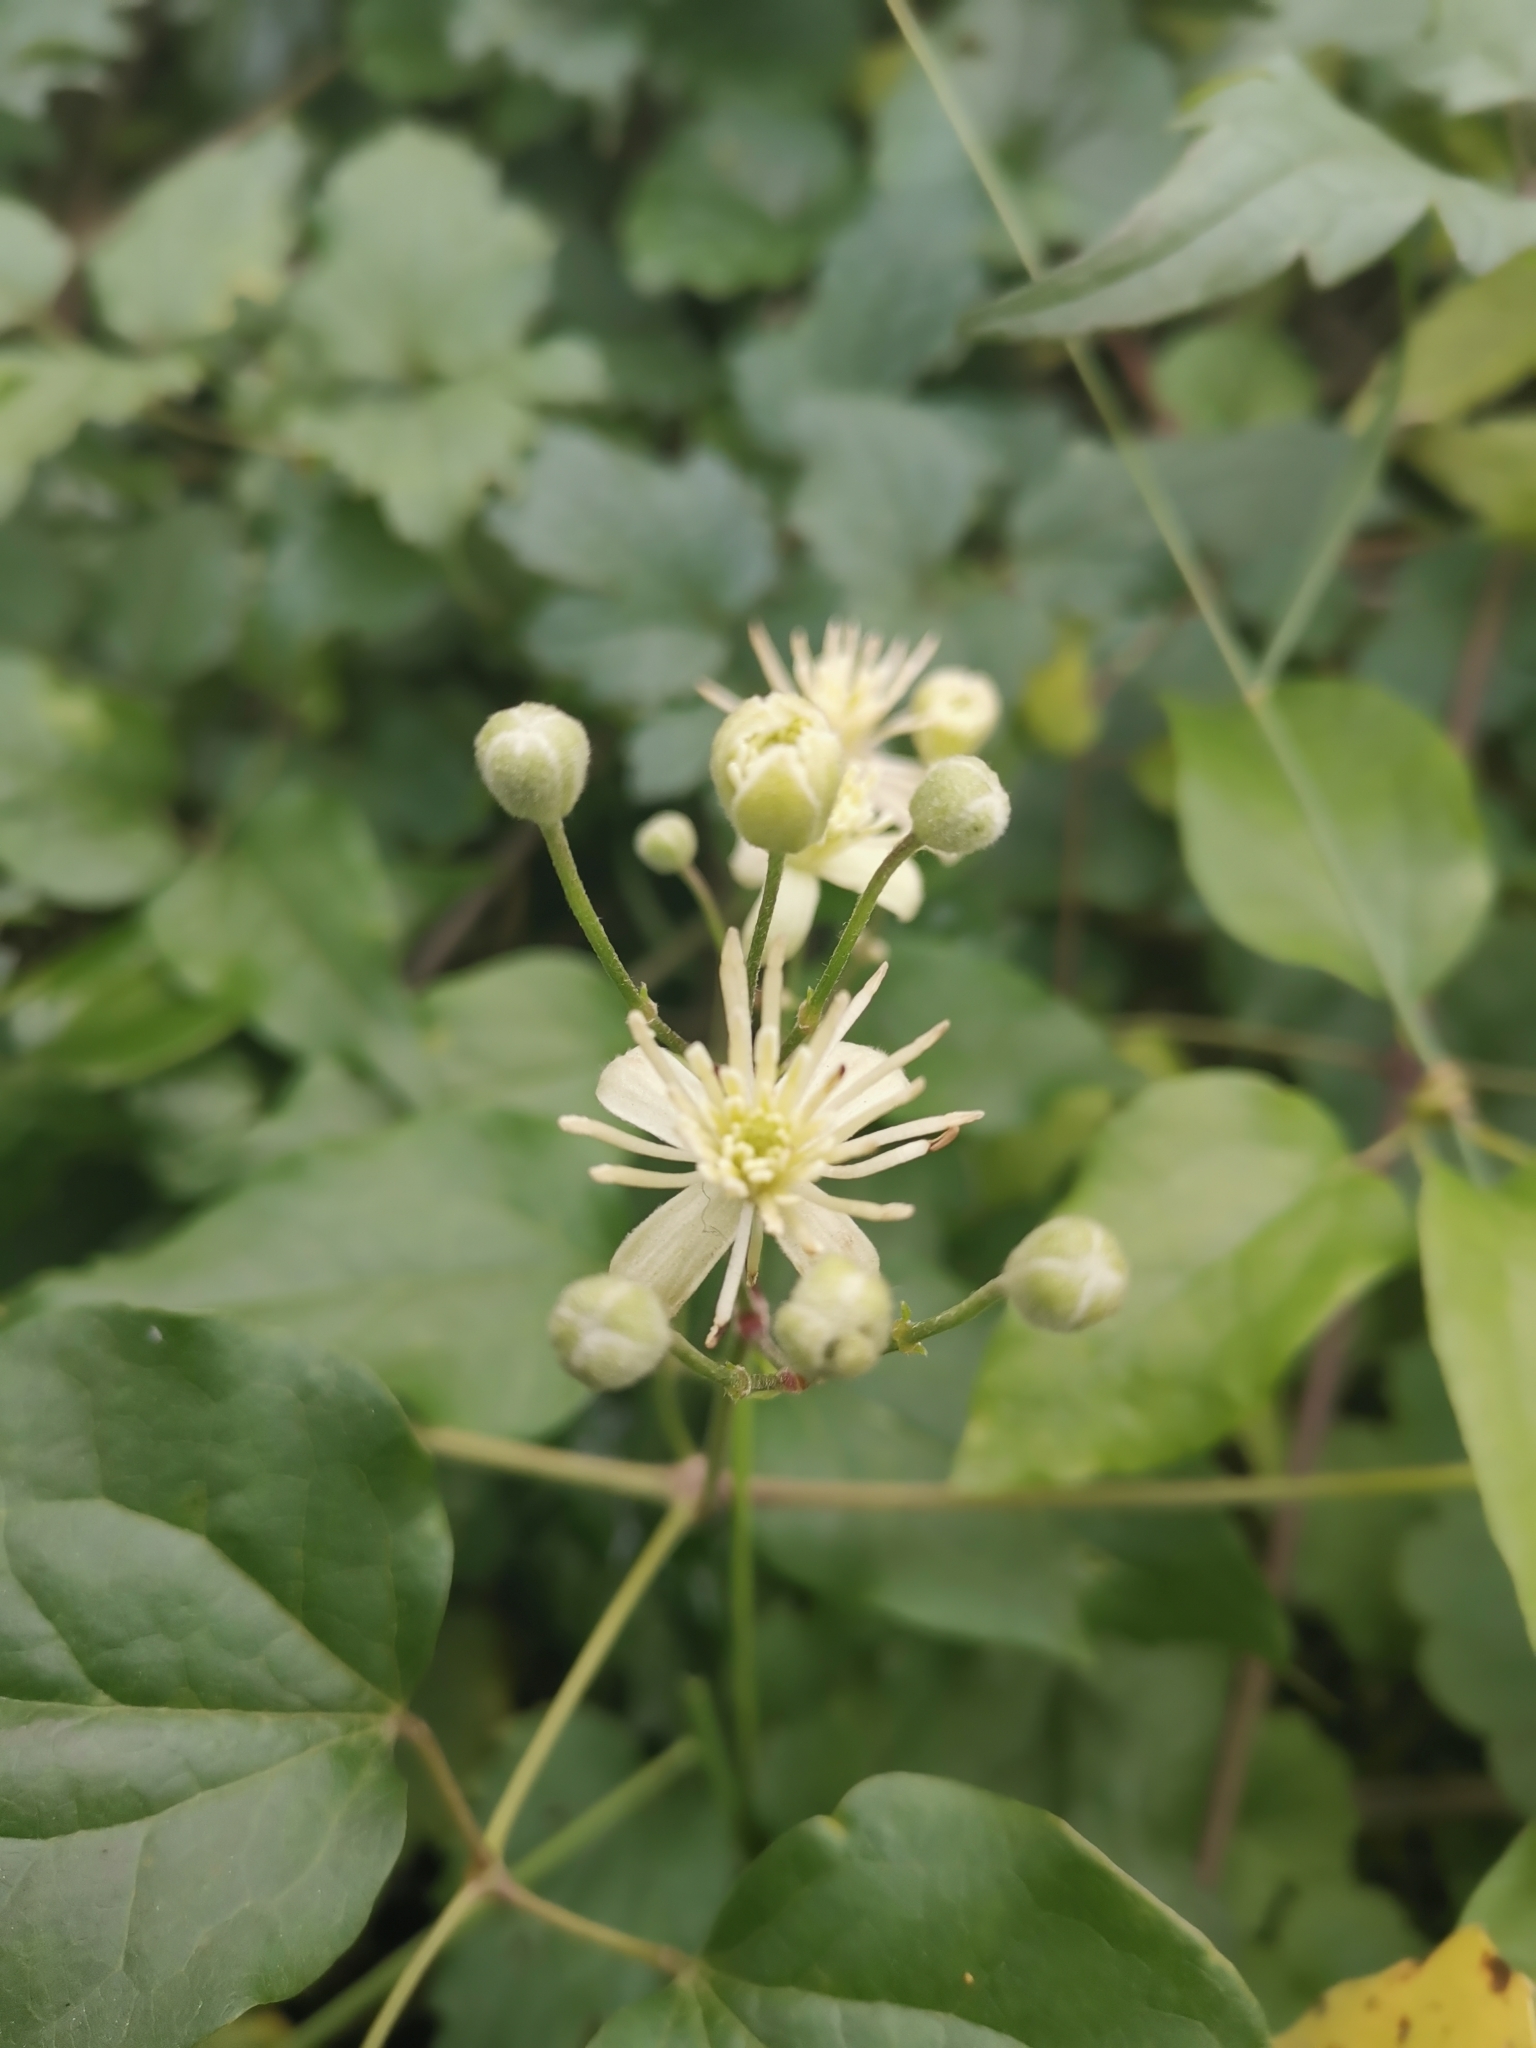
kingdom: Plantae
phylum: Tracheophyta
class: Magnoliopsida
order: Ranunculales
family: Ranunculaceae
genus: Clematis
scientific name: Clematis vitalba
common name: Evergreen clematis
